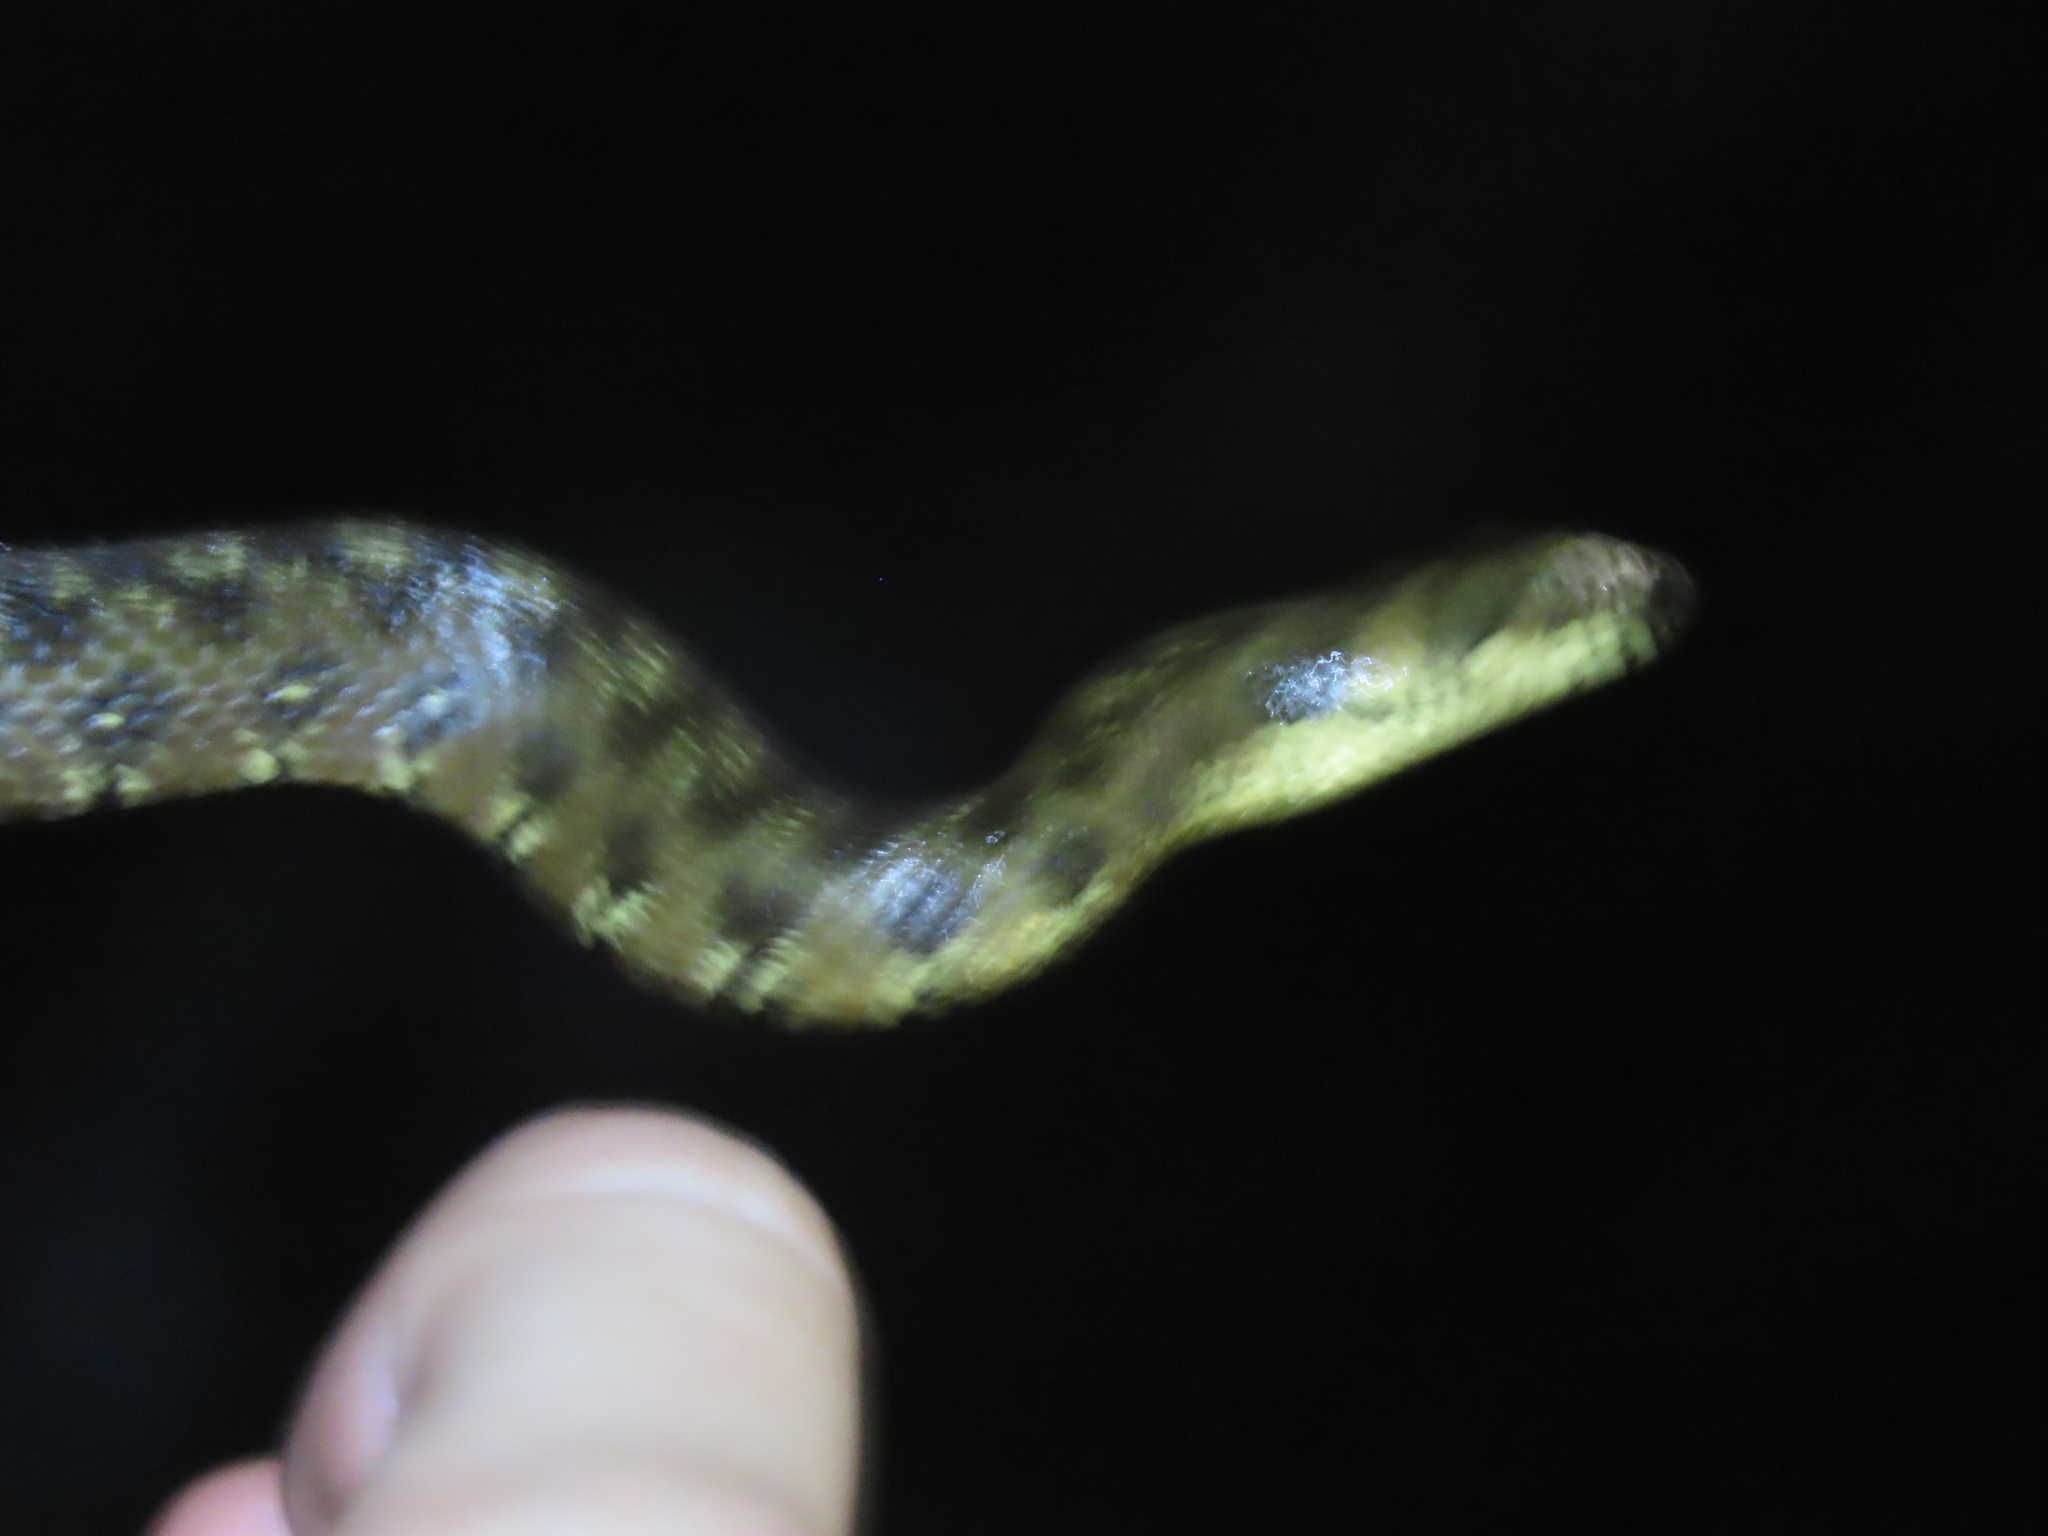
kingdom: Animalia
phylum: Chordata
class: Squamata
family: Colubridae
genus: Natrix
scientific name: Natrix maura
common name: Viperine water snake
